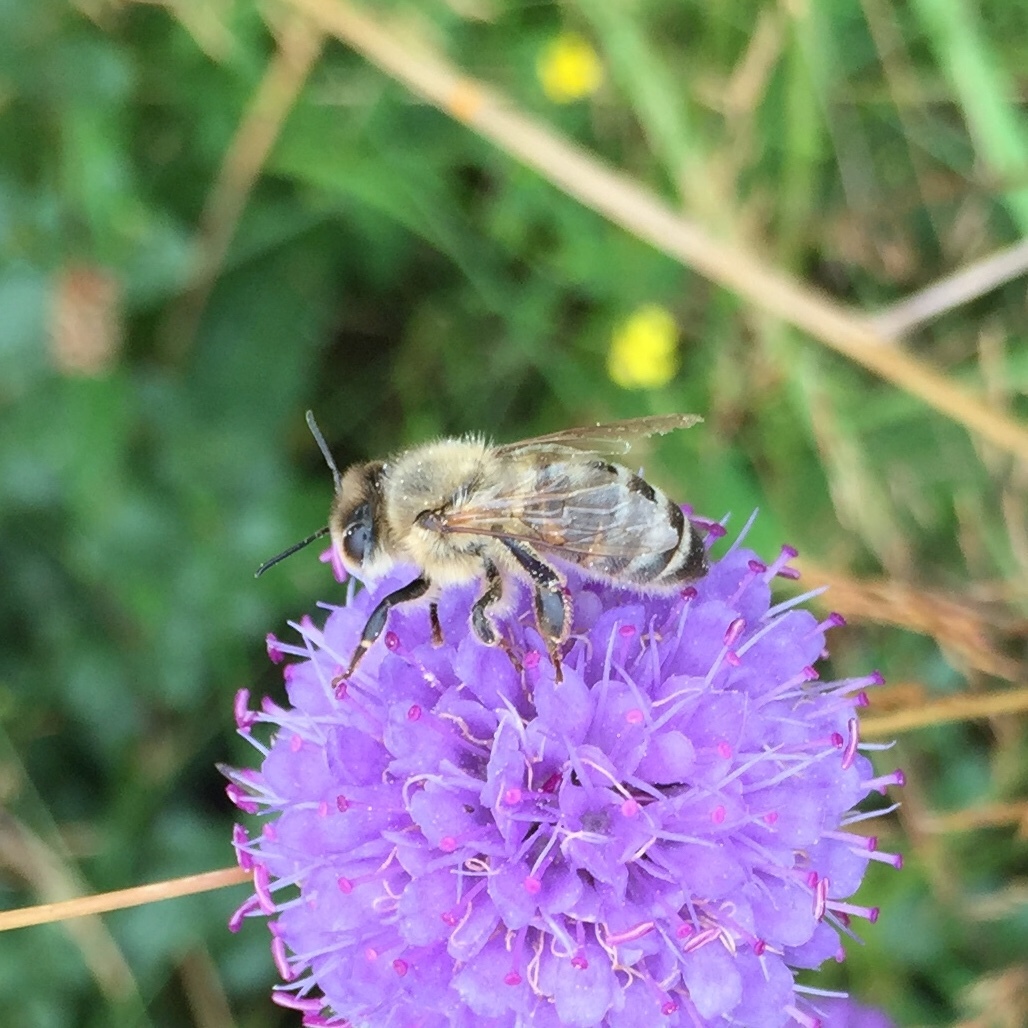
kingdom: Animalia
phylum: Arthropoda
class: Insecta
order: Hymenoptera
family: Apidae
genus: Apis
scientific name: Apis mellifera
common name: Honey bee
